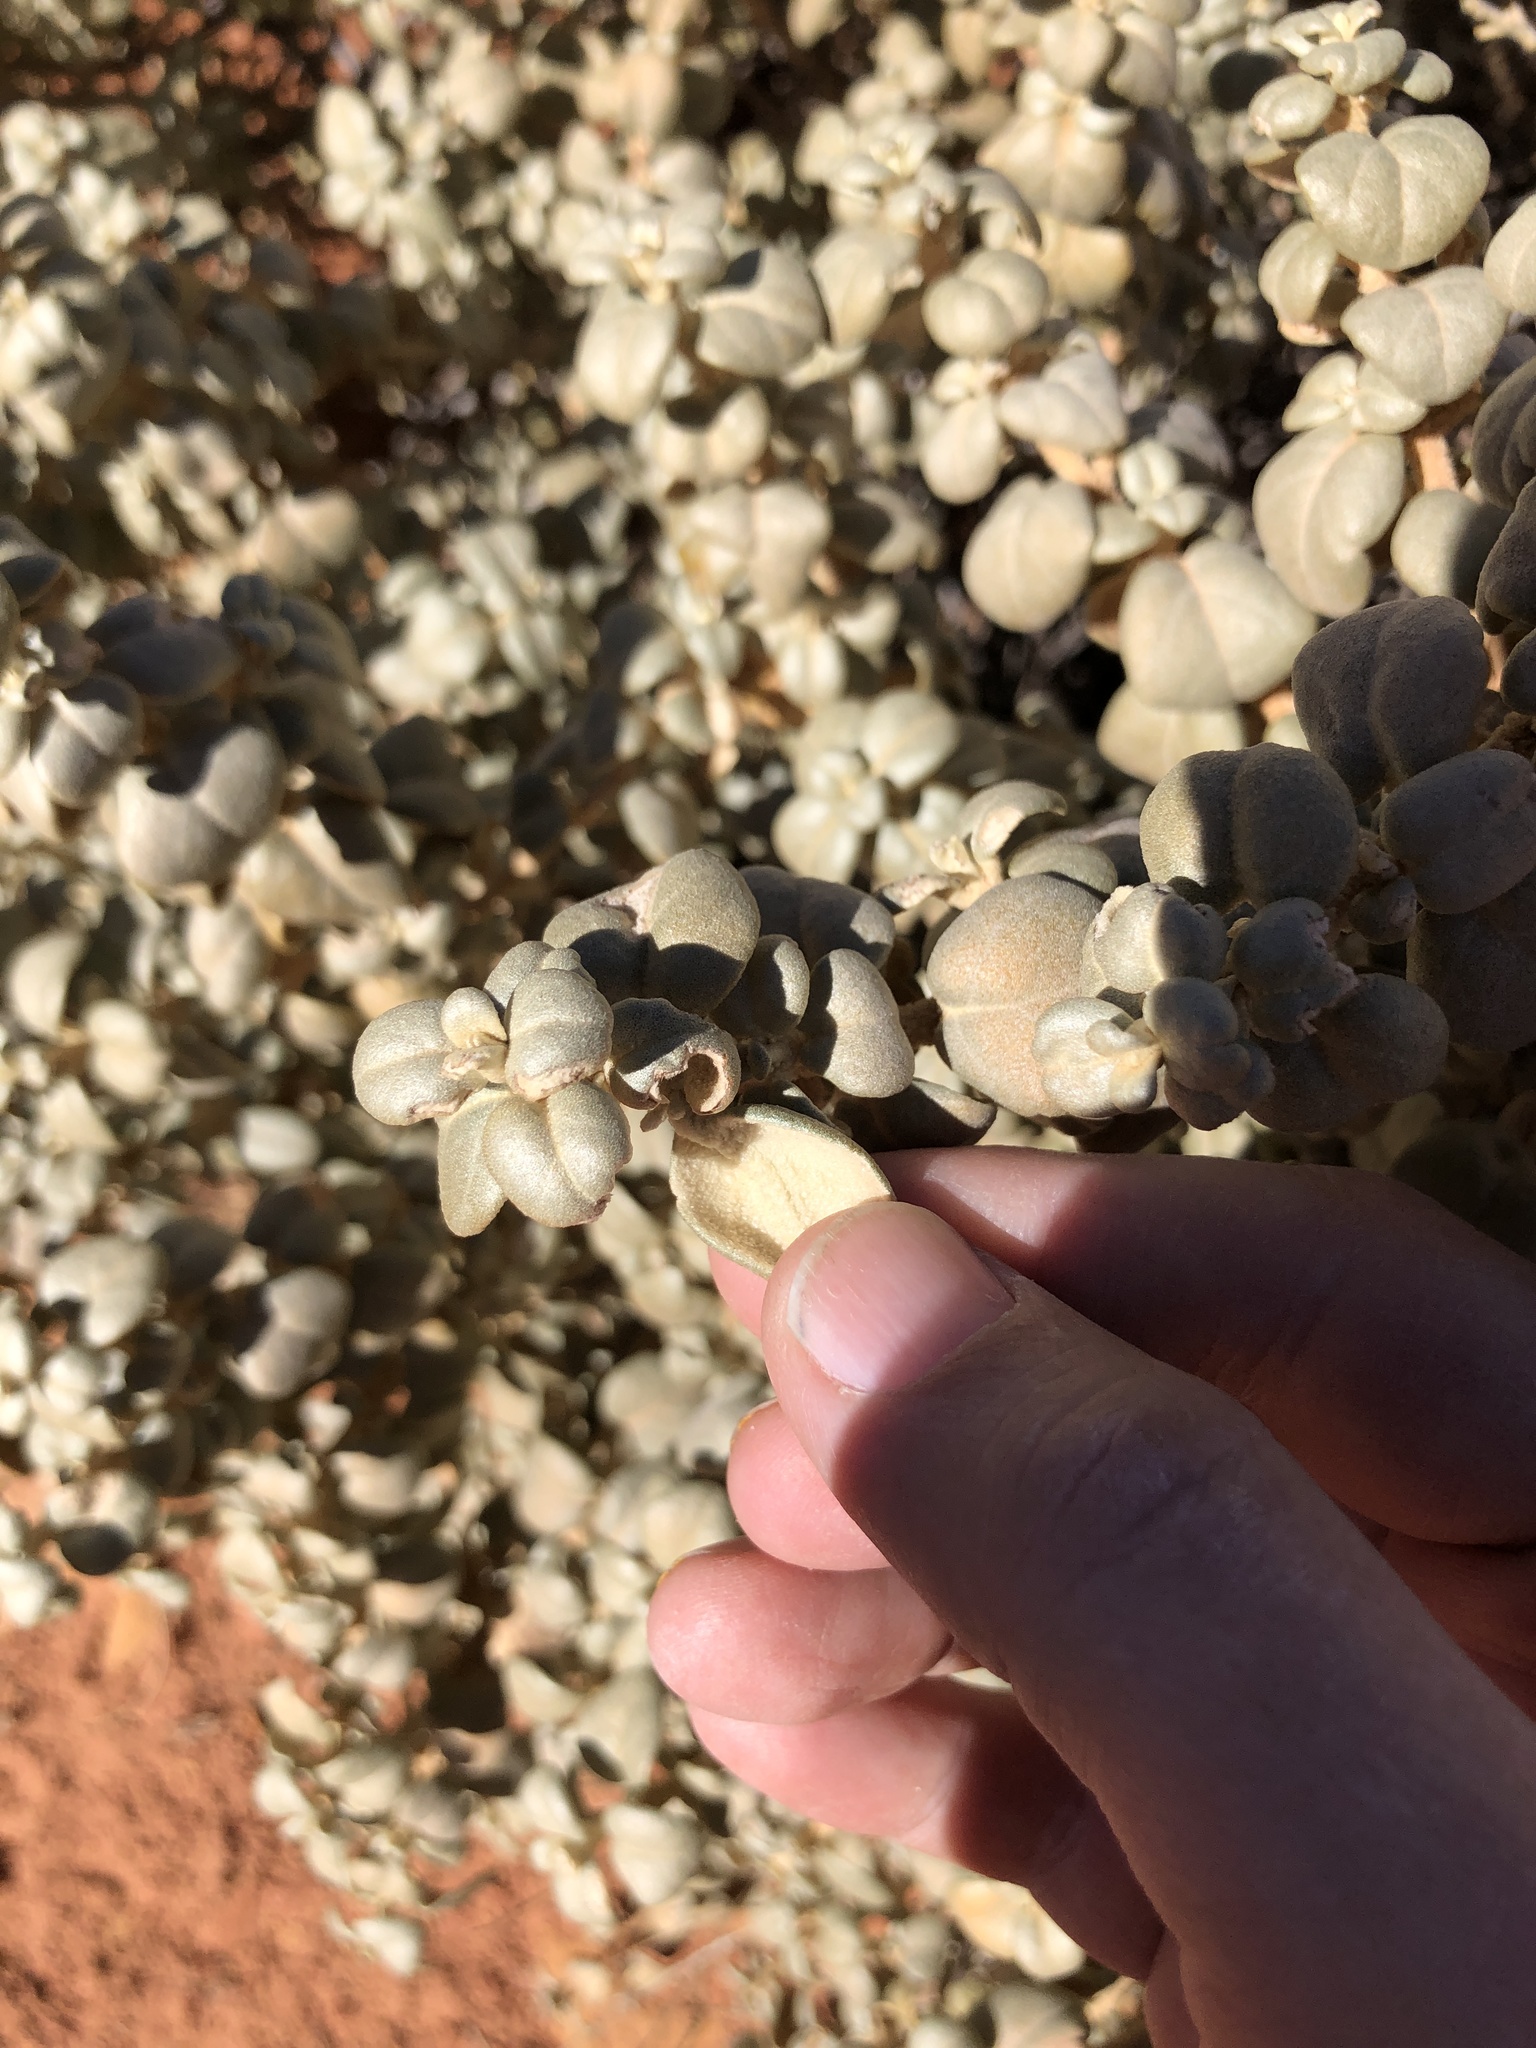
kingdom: Plantae
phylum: Tracheophyta
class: Magnoliopsida
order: Rosales
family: Elaeagnaceae
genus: Shepherdia
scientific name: Shepherdia rotundifolia
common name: Silverscale
